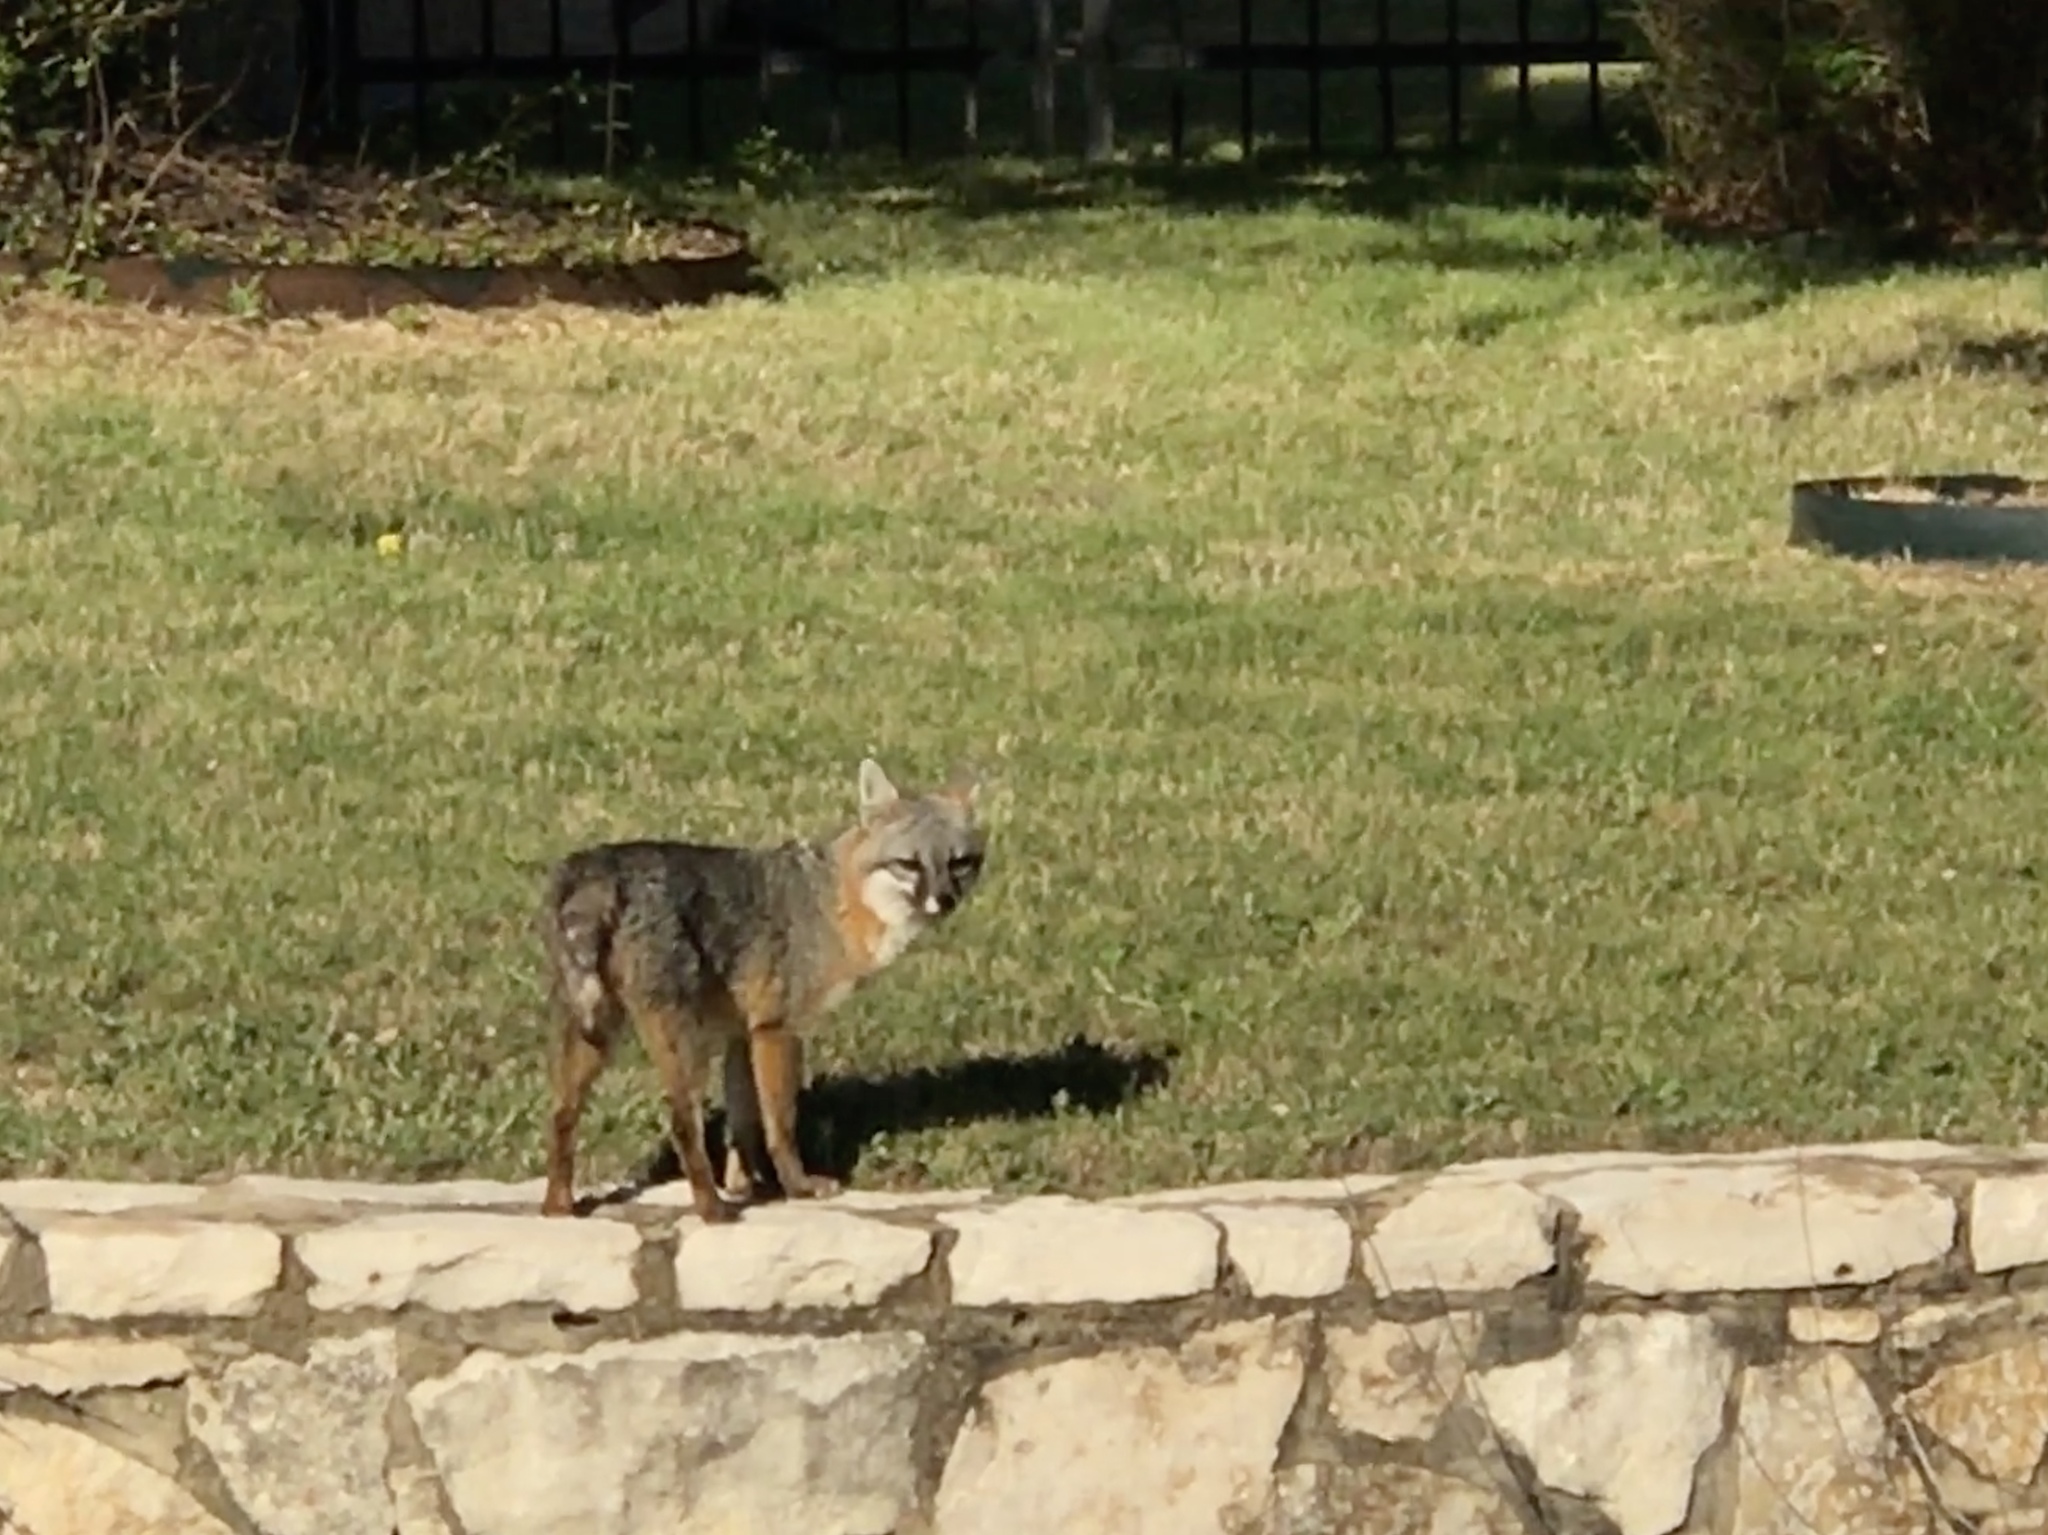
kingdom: Animalia
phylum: Chordata
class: Mammalia
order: Carnivora
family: Canidae
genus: Urocyon
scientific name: Urocyon cinereoargenteus
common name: Gray fox
